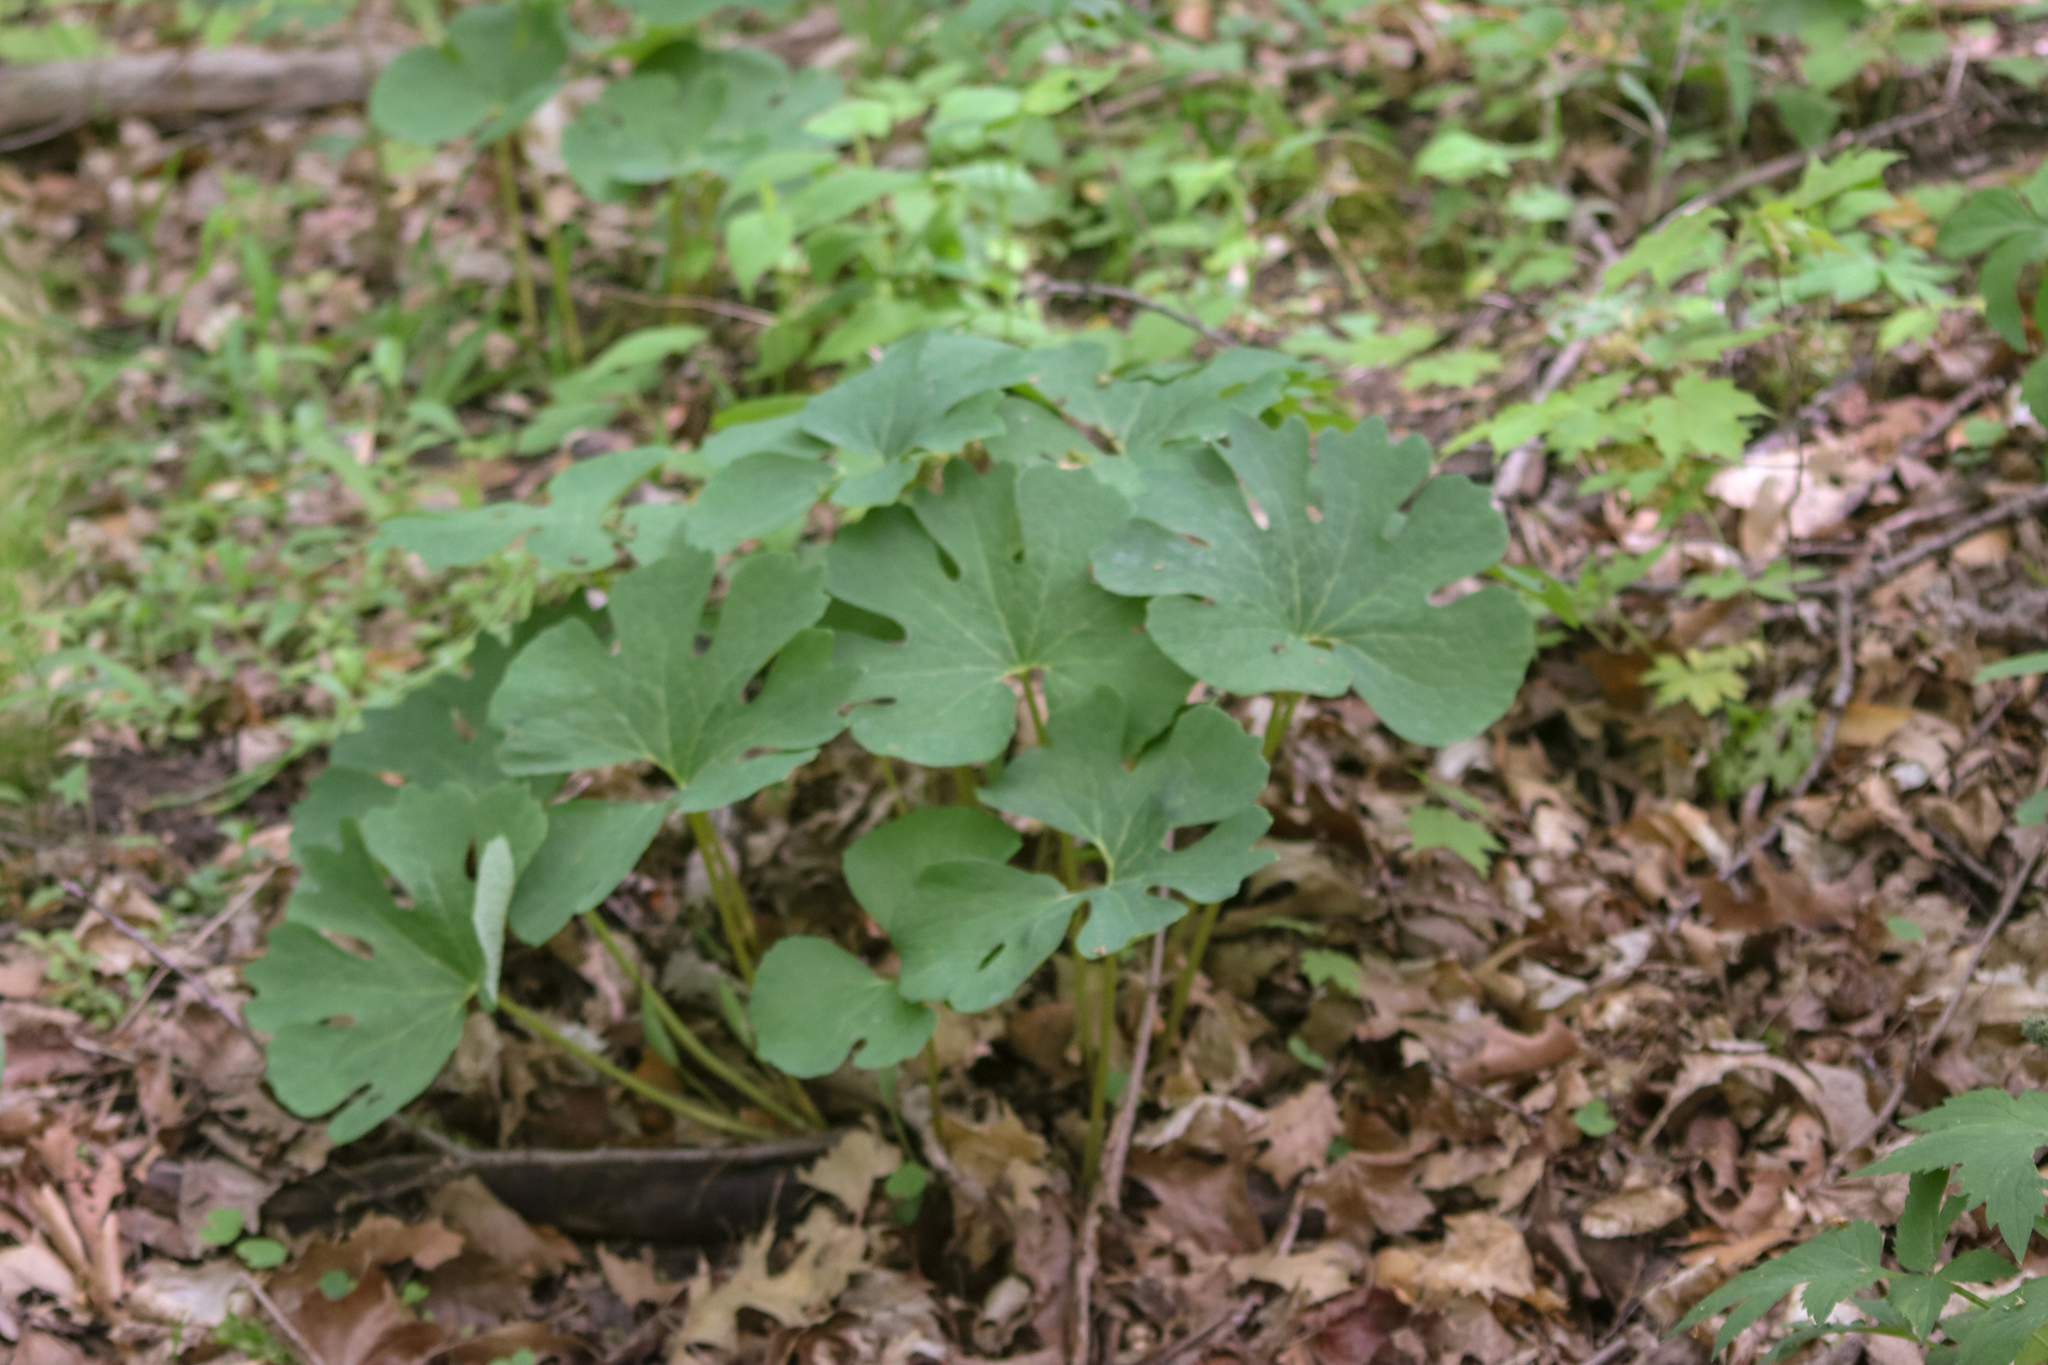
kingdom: Plantae
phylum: Tracheophyta
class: Magnoliopsida
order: Ranunculales
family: Papaveraceae
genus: Sanguinaria
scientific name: Sanguinaria canadensis
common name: Bloodroot
